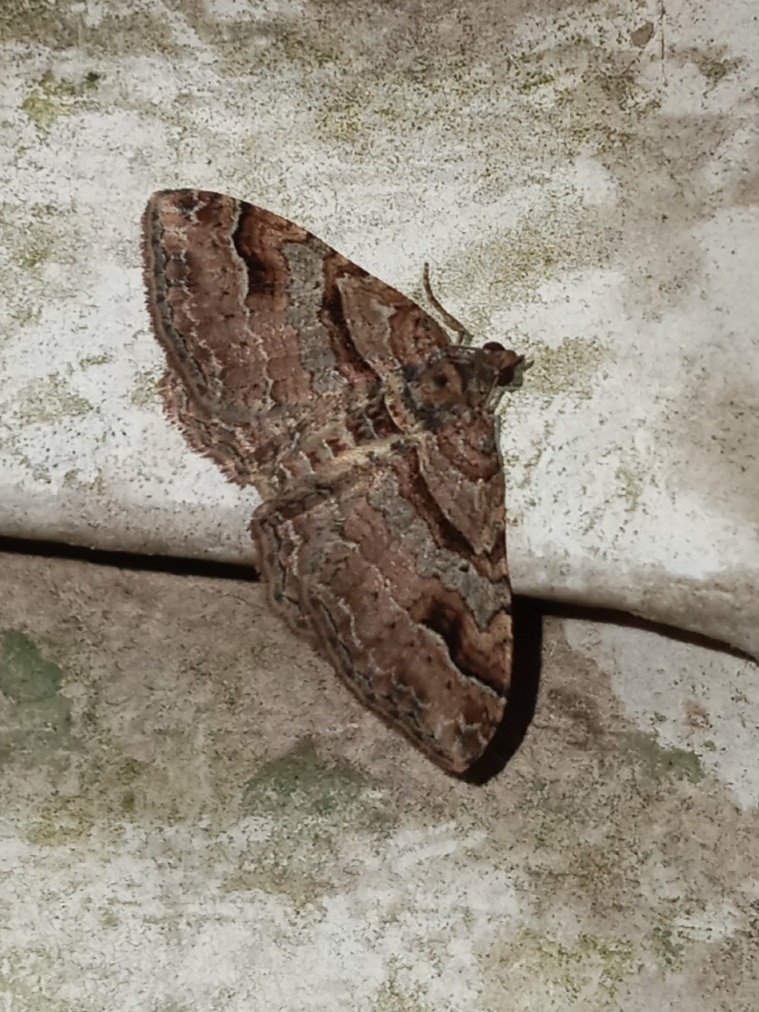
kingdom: Animalia
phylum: Arthropoda
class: Insecta
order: Lepidoptera
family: Geometridae
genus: Costaconvexa
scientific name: Costaconvexa centrostrigaria
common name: Bent-line carpet
